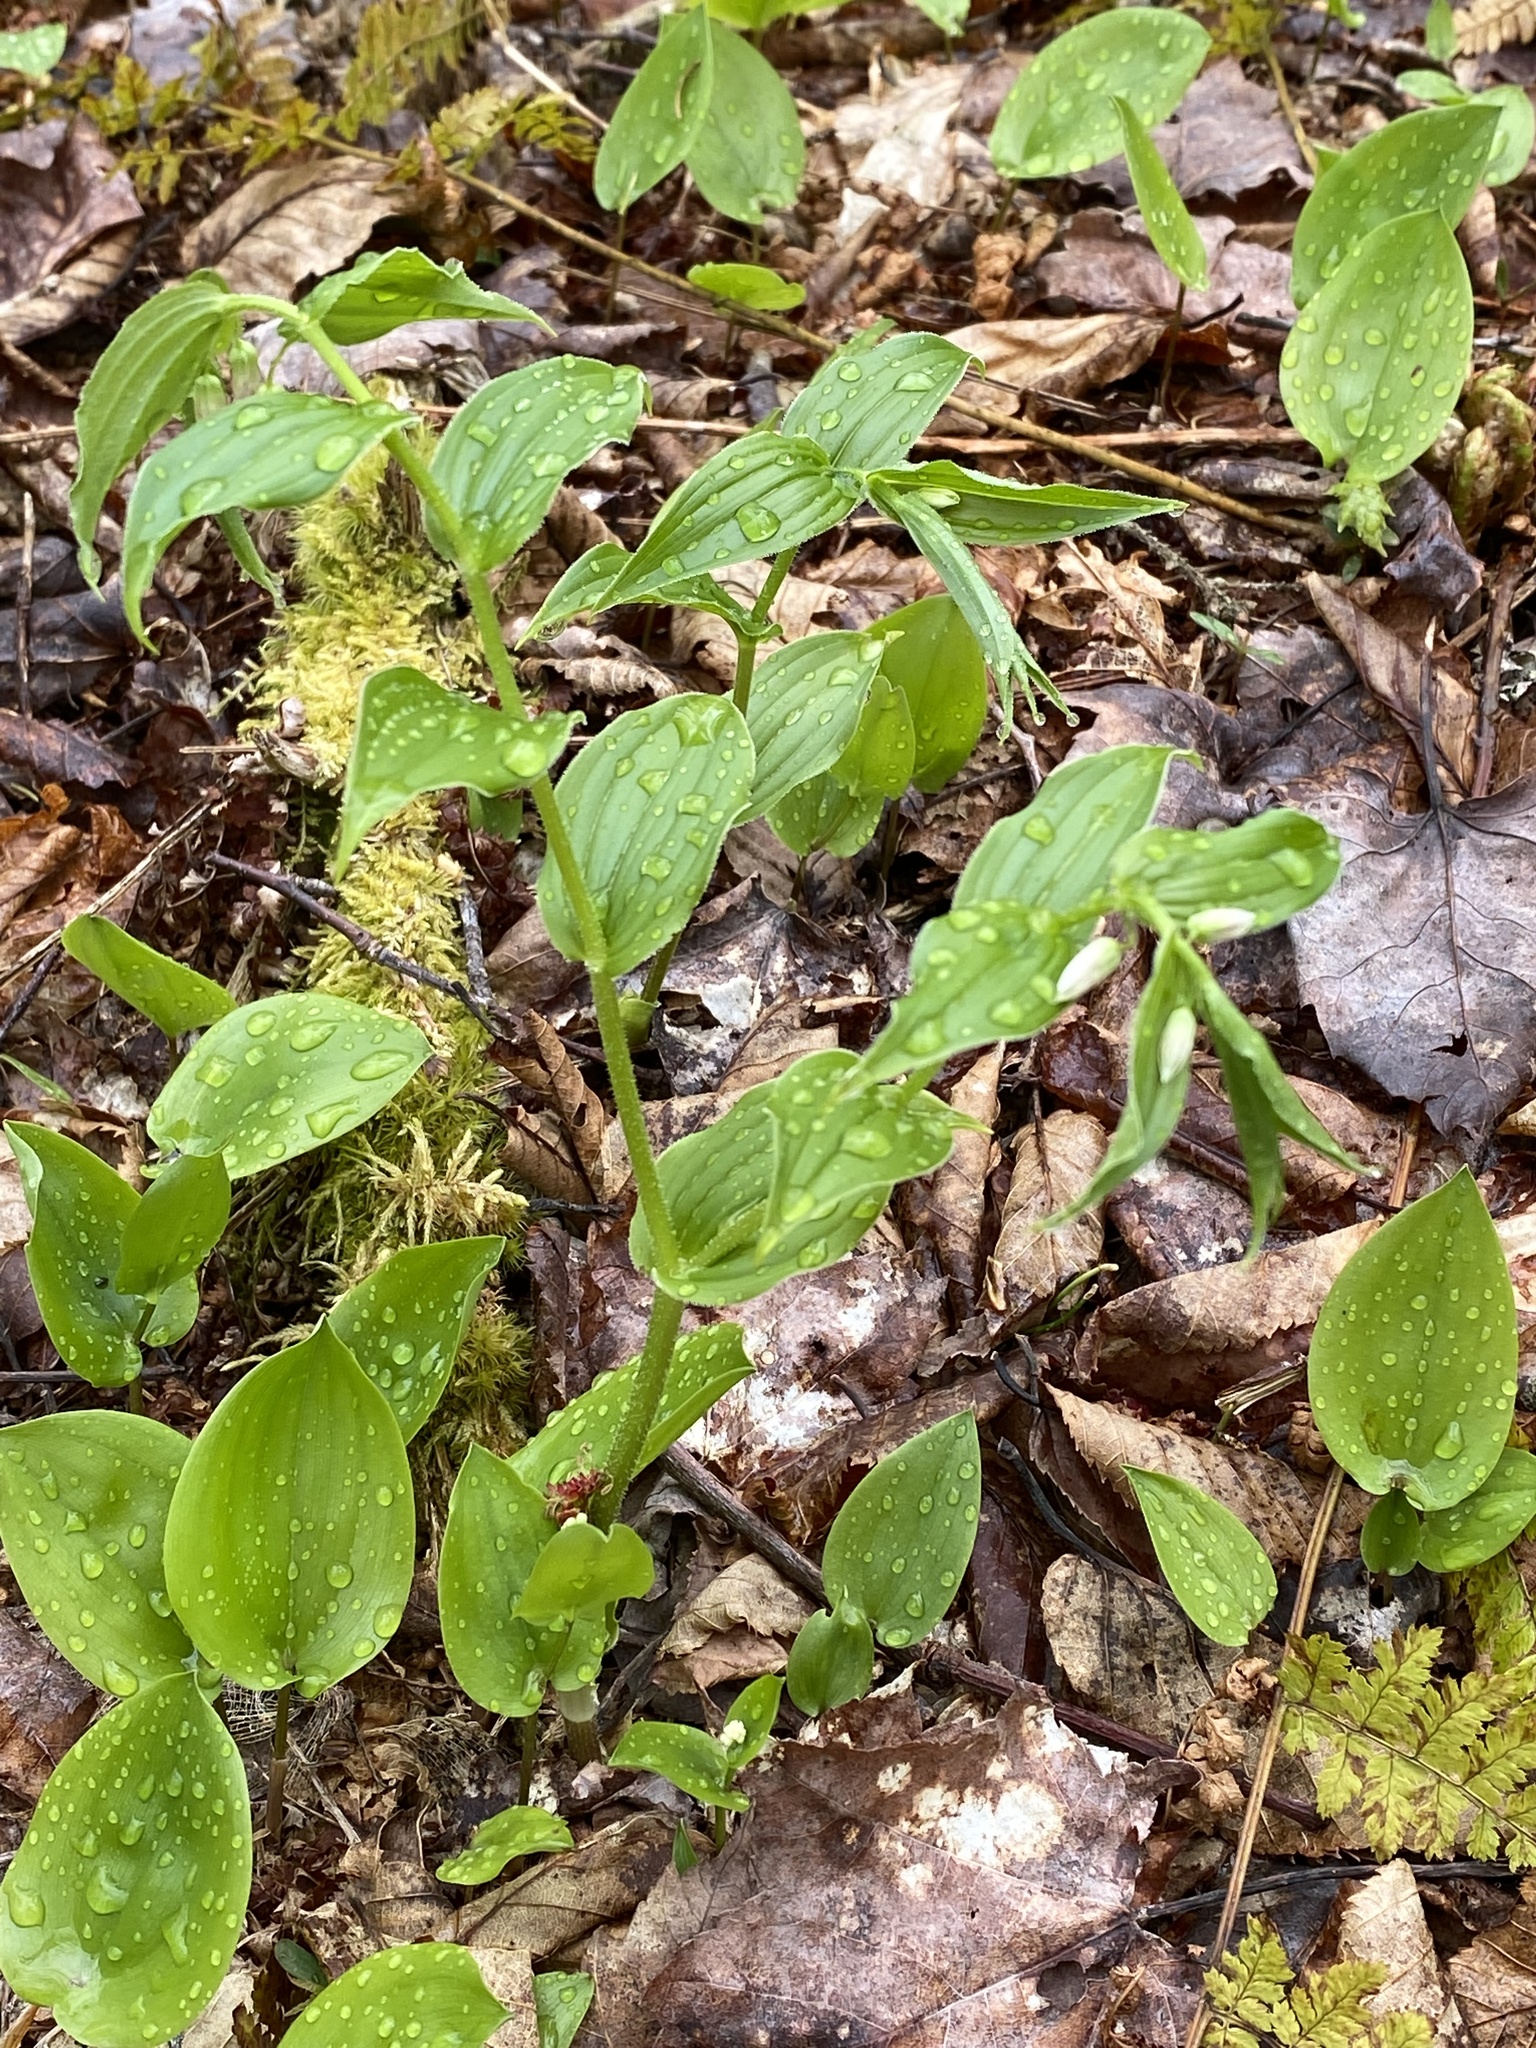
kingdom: Plantae
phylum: Tracheophyta
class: Liliopsida
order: Liliales
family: Liliaceae
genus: Streptopus
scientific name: Streptopus lanceolatus
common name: Rose mandarin
